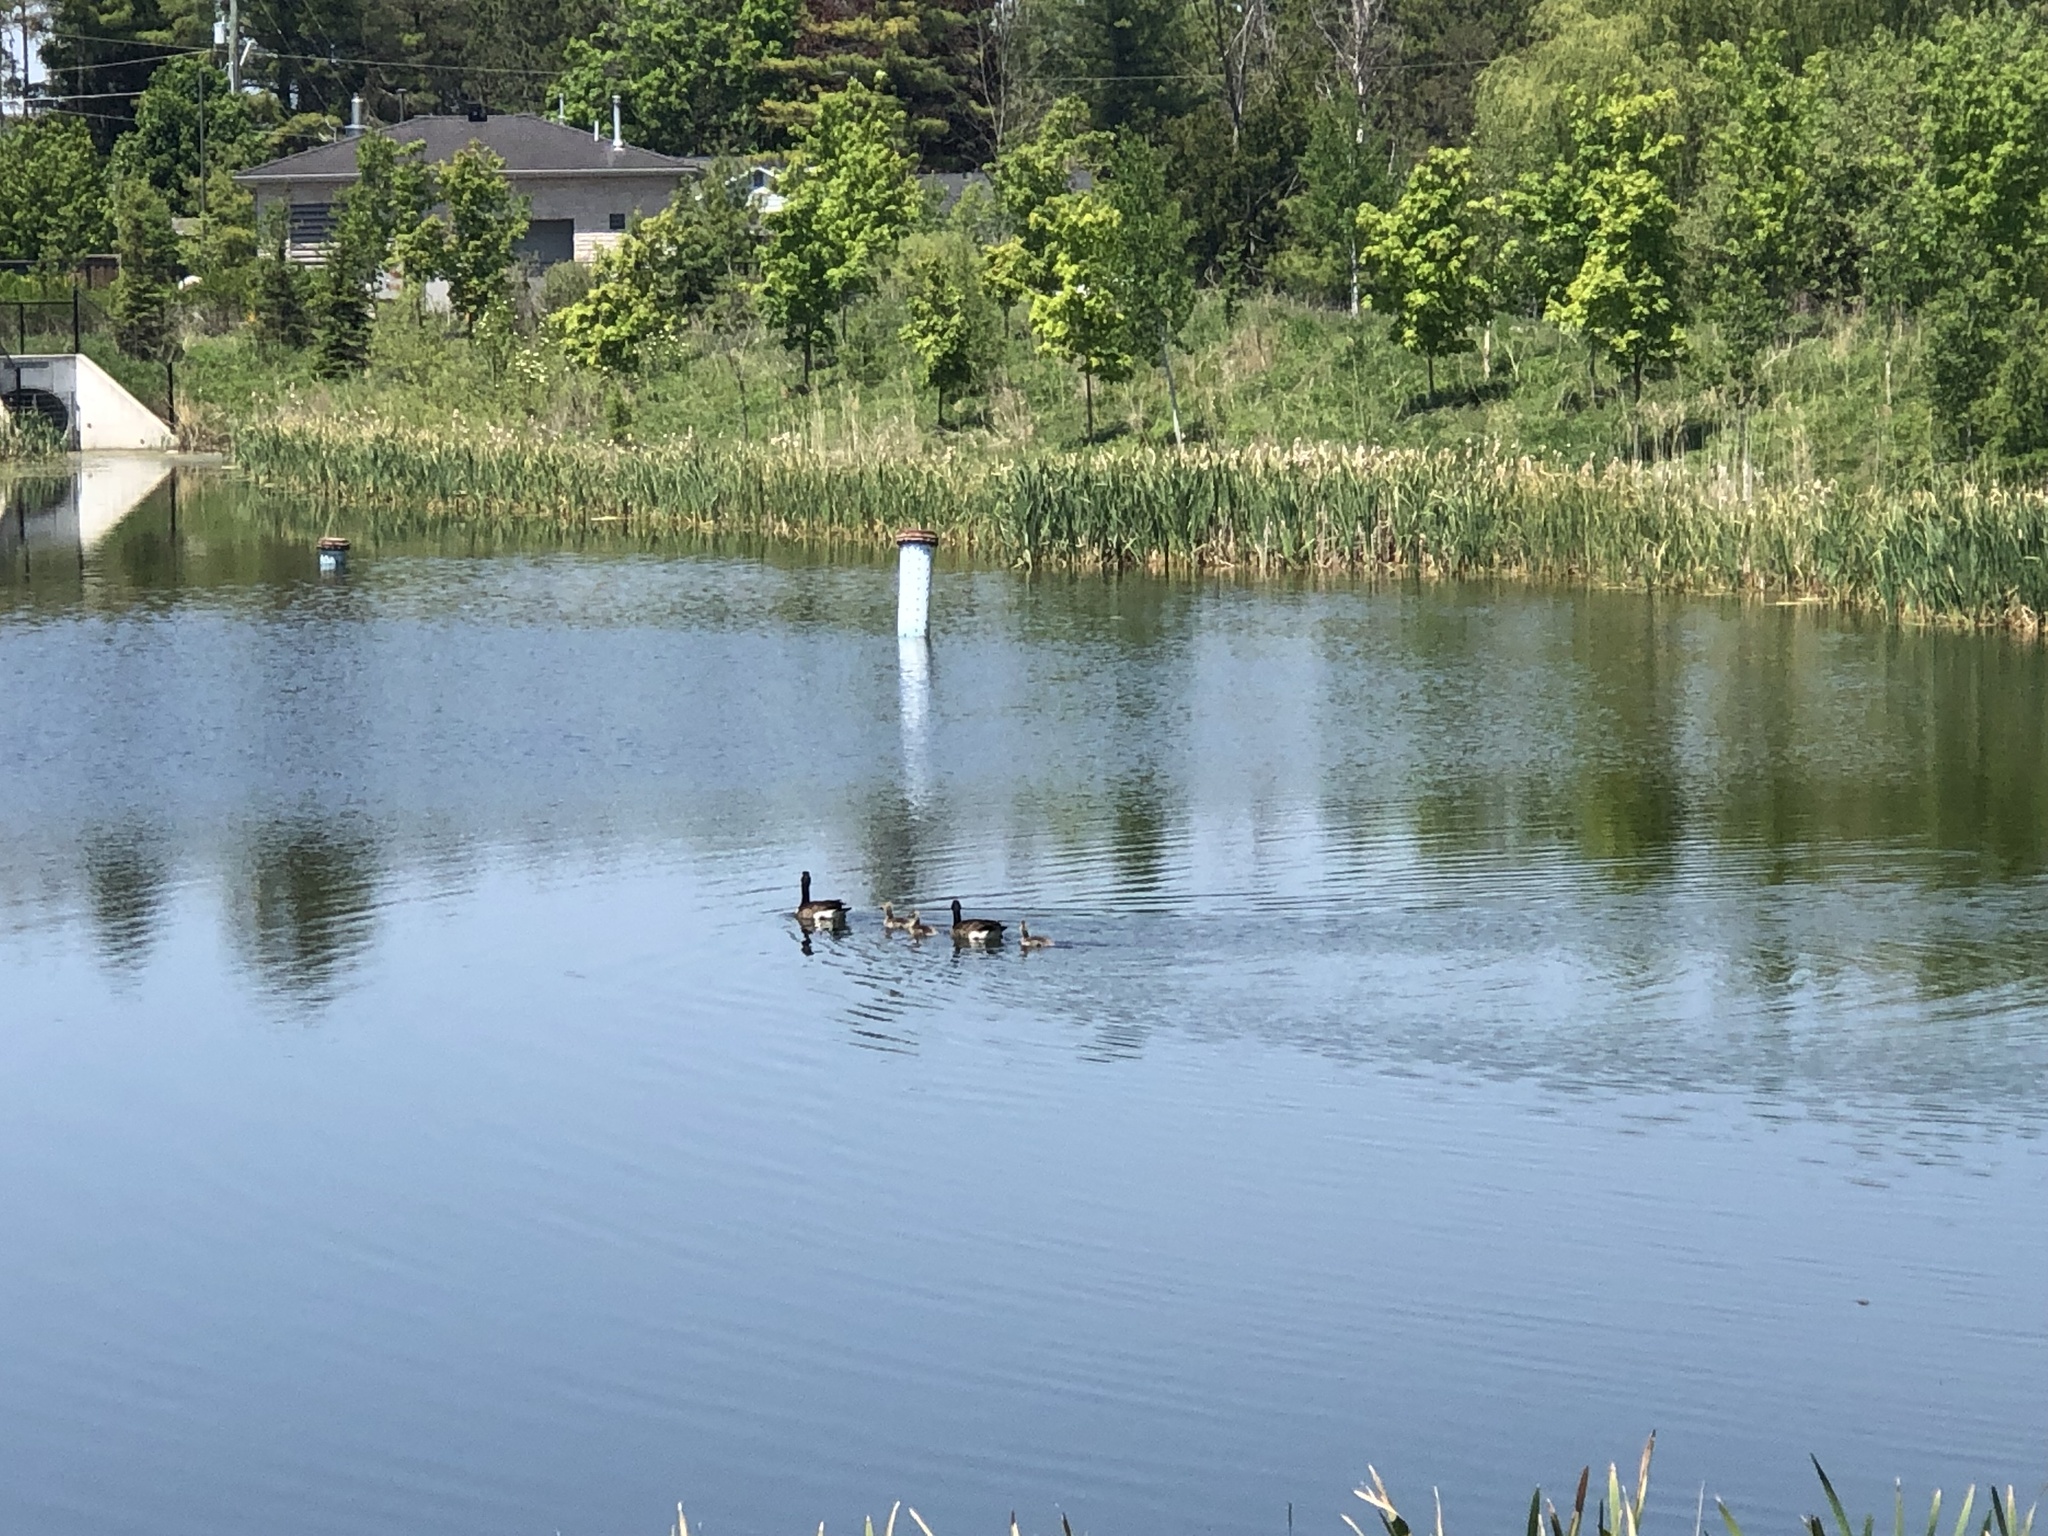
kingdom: Animalia
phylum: Chordata
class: Aves
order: Anseriformes
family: Anatidae
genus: Branta
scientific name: Branta canadensis
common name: Canada goose
